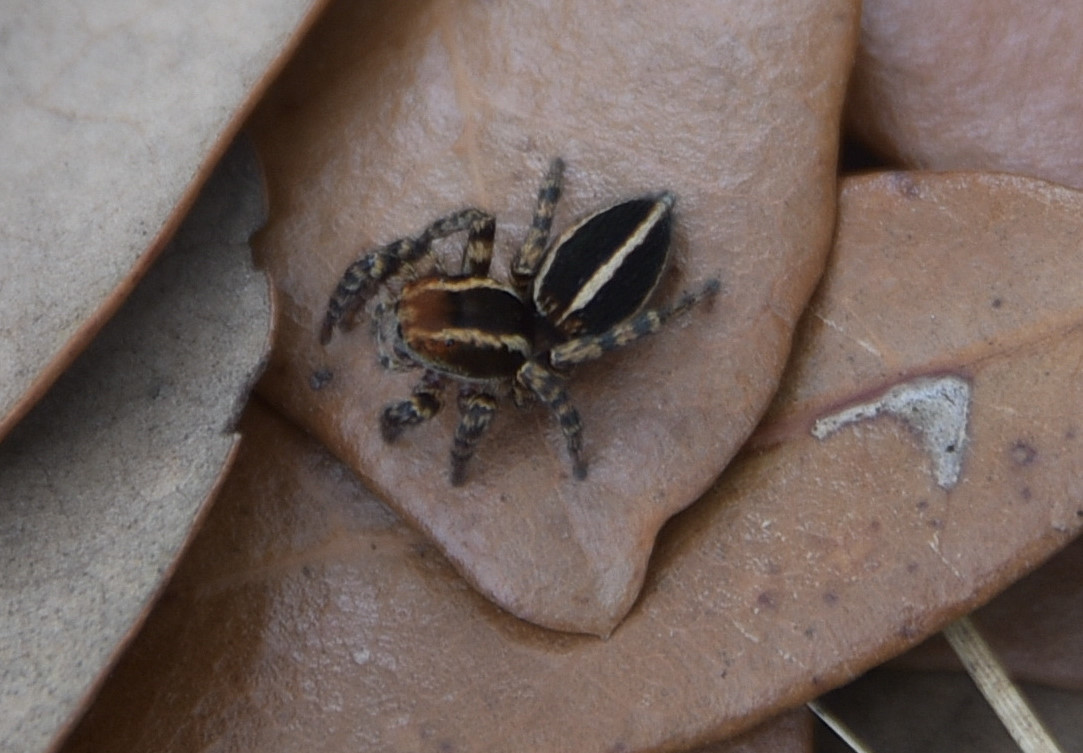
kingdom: Animalia
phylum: Arthropoda
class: Arachnida
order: Araneae
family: Salticidae
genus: Phlegra
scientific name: Phlegra hentzi
